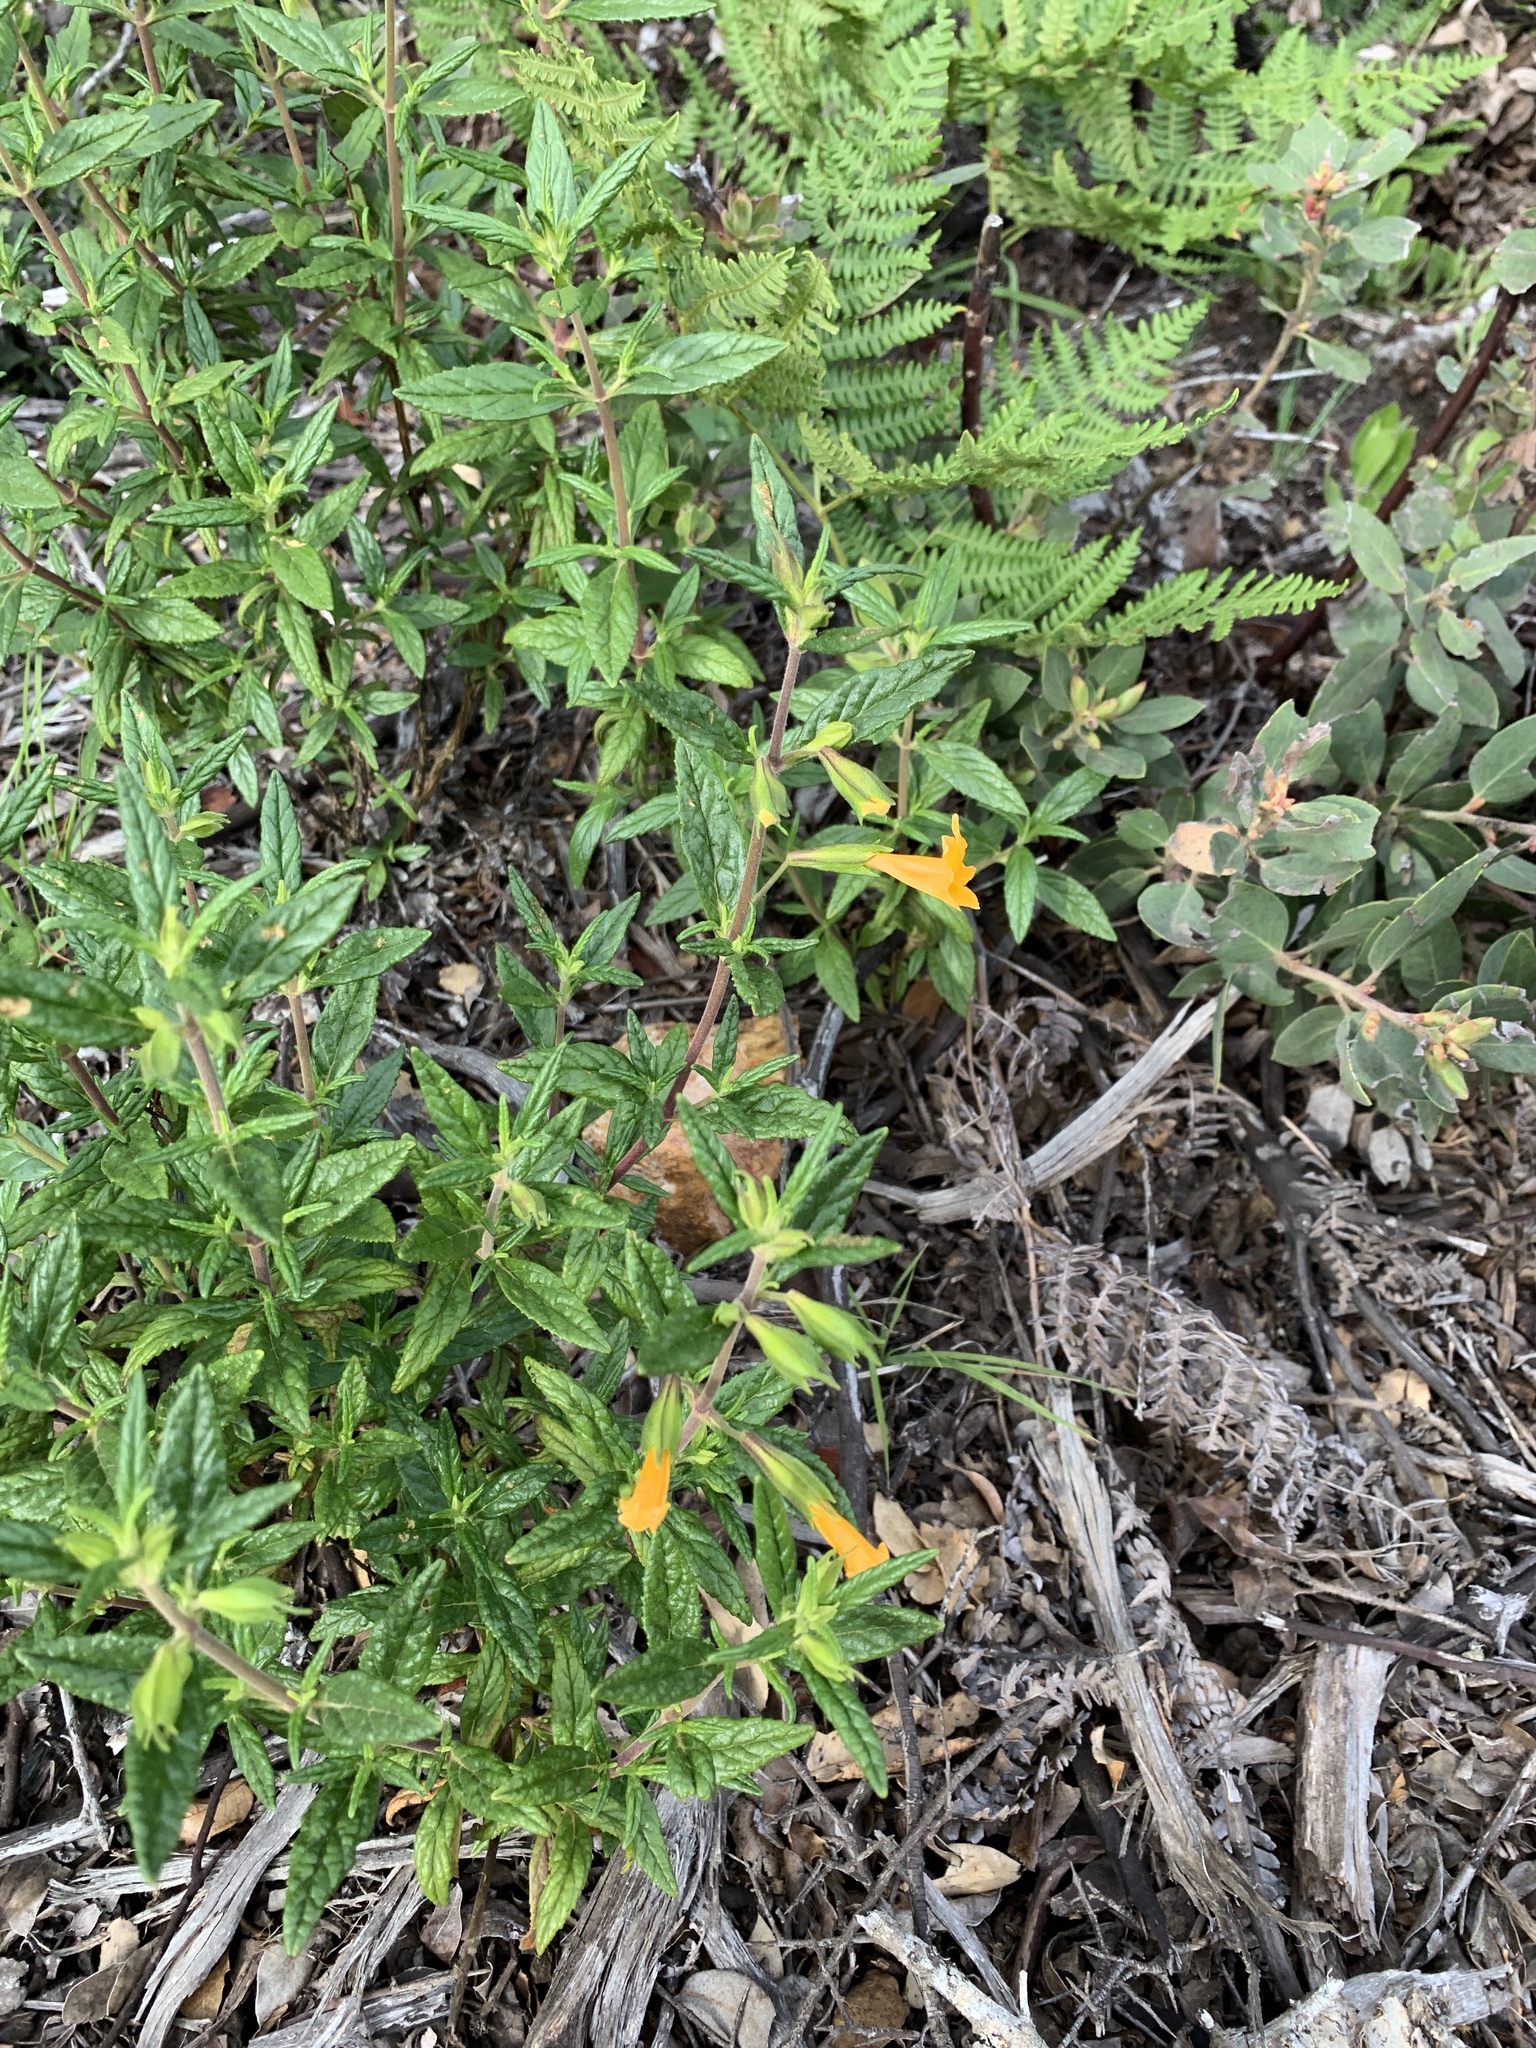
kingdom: Plantae
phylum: Tracheophyta
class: Magnoliopsida
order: Lamiales
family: Phrymaceae
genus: Diplacus
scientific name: Diplacus aurantiacus
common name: Bush monkey-flower
